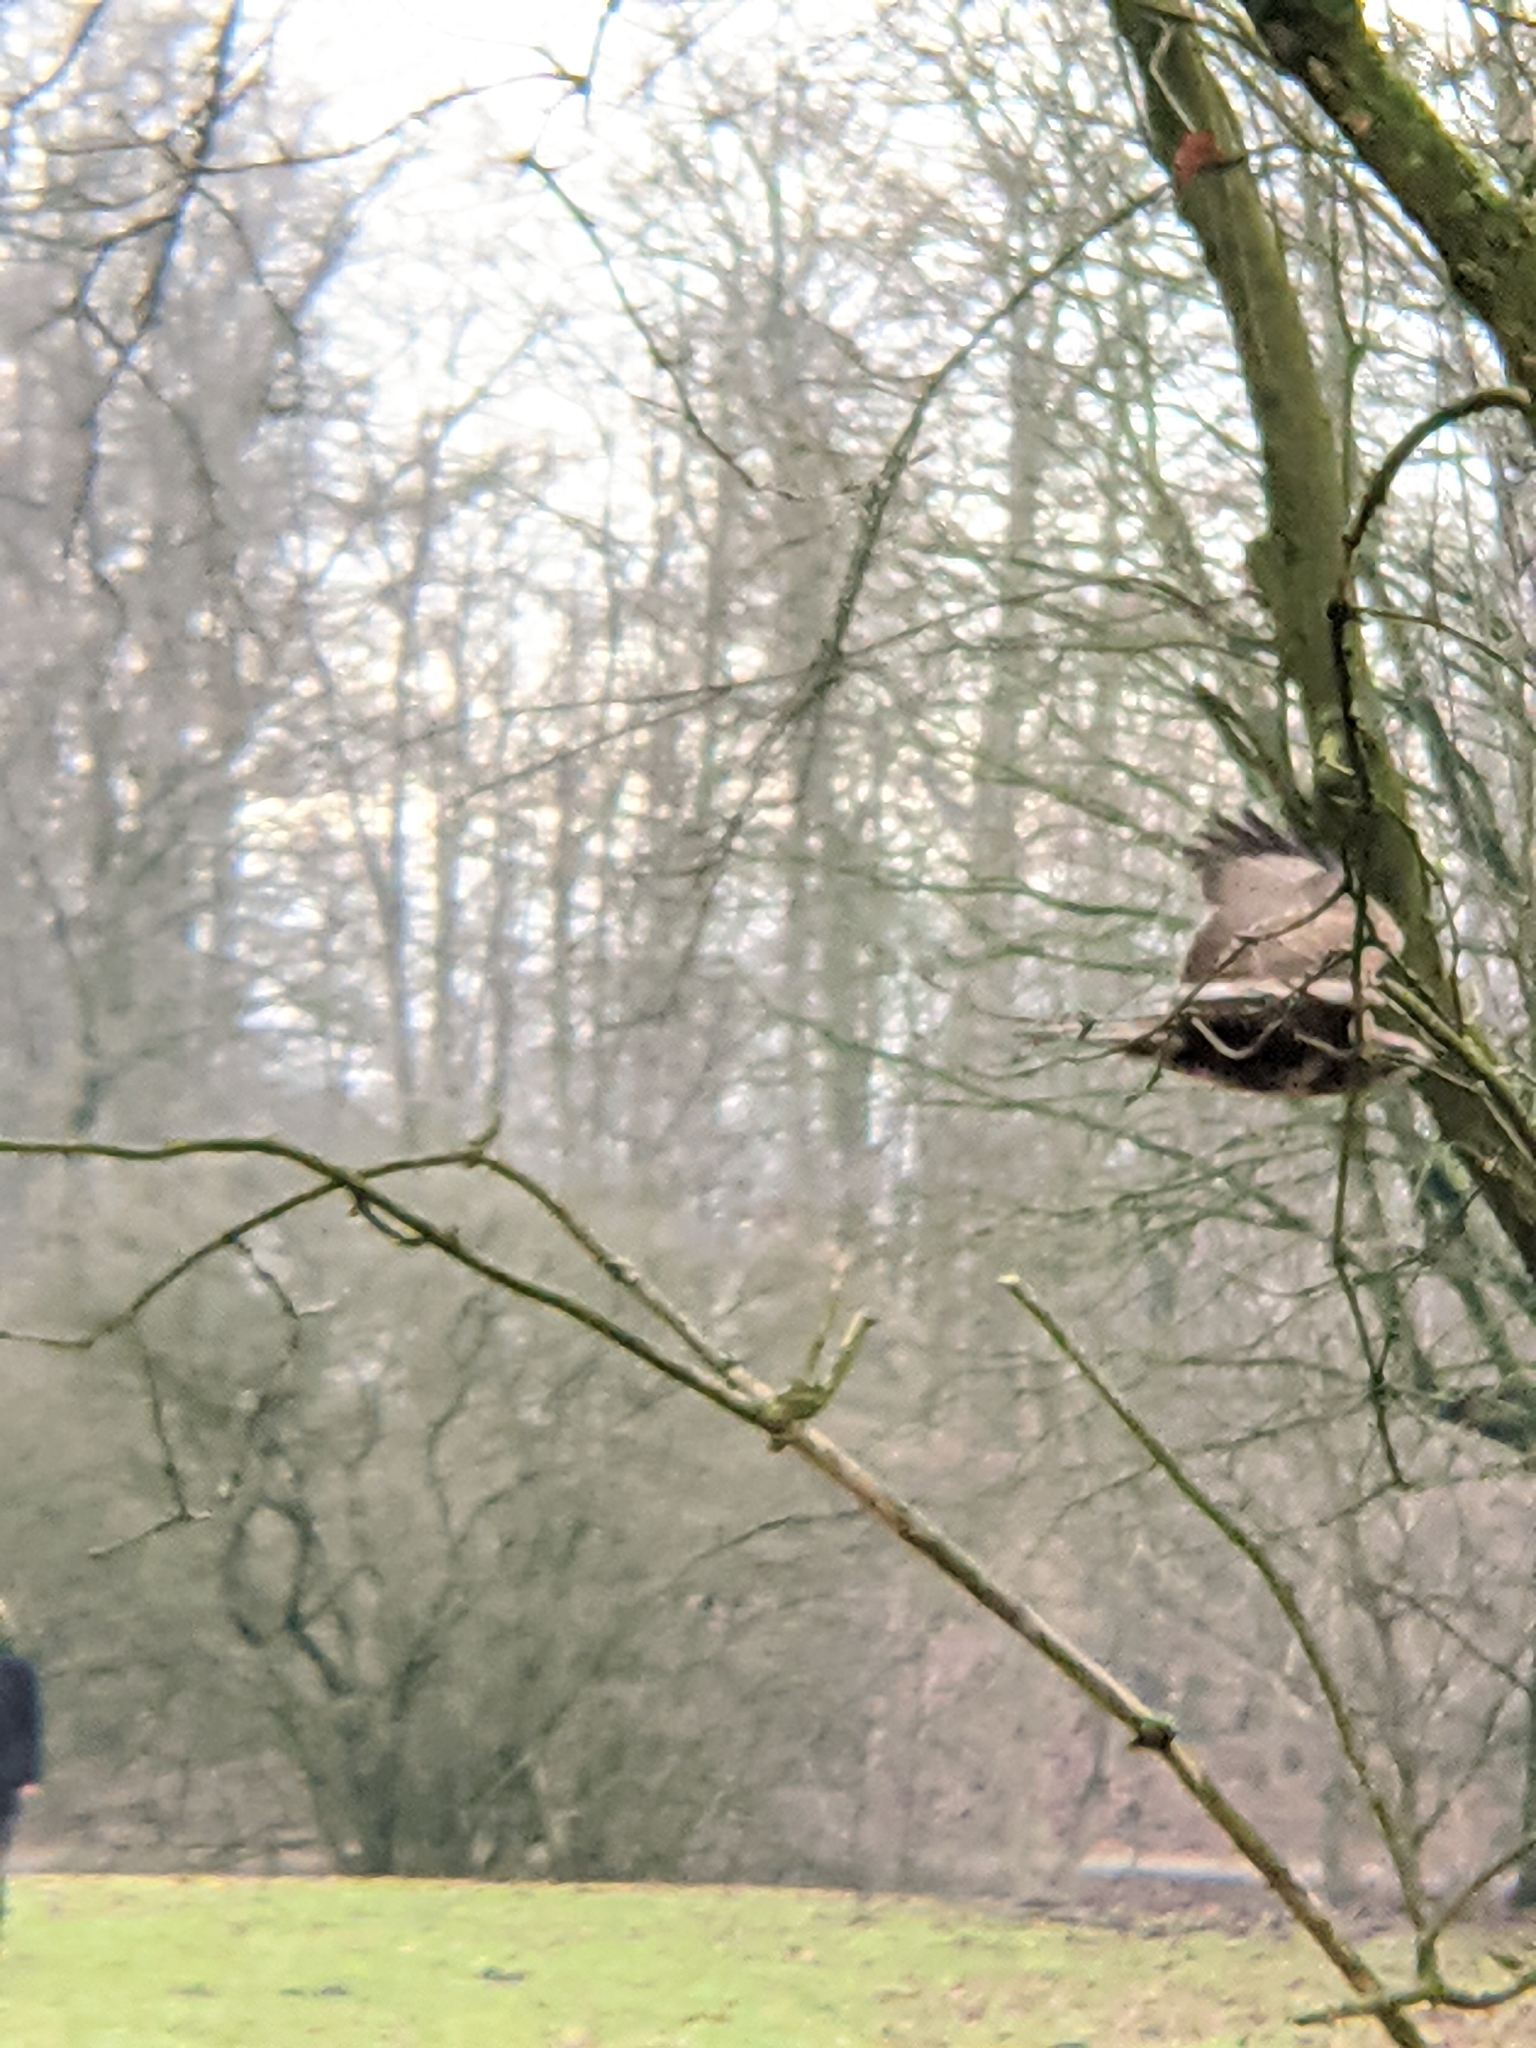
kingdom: Animalia
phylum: Chordata
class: Aves
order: Accipitriformes
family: Accipitridae
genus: Buteo
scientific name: Buteo buteo
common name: Common buzzard
